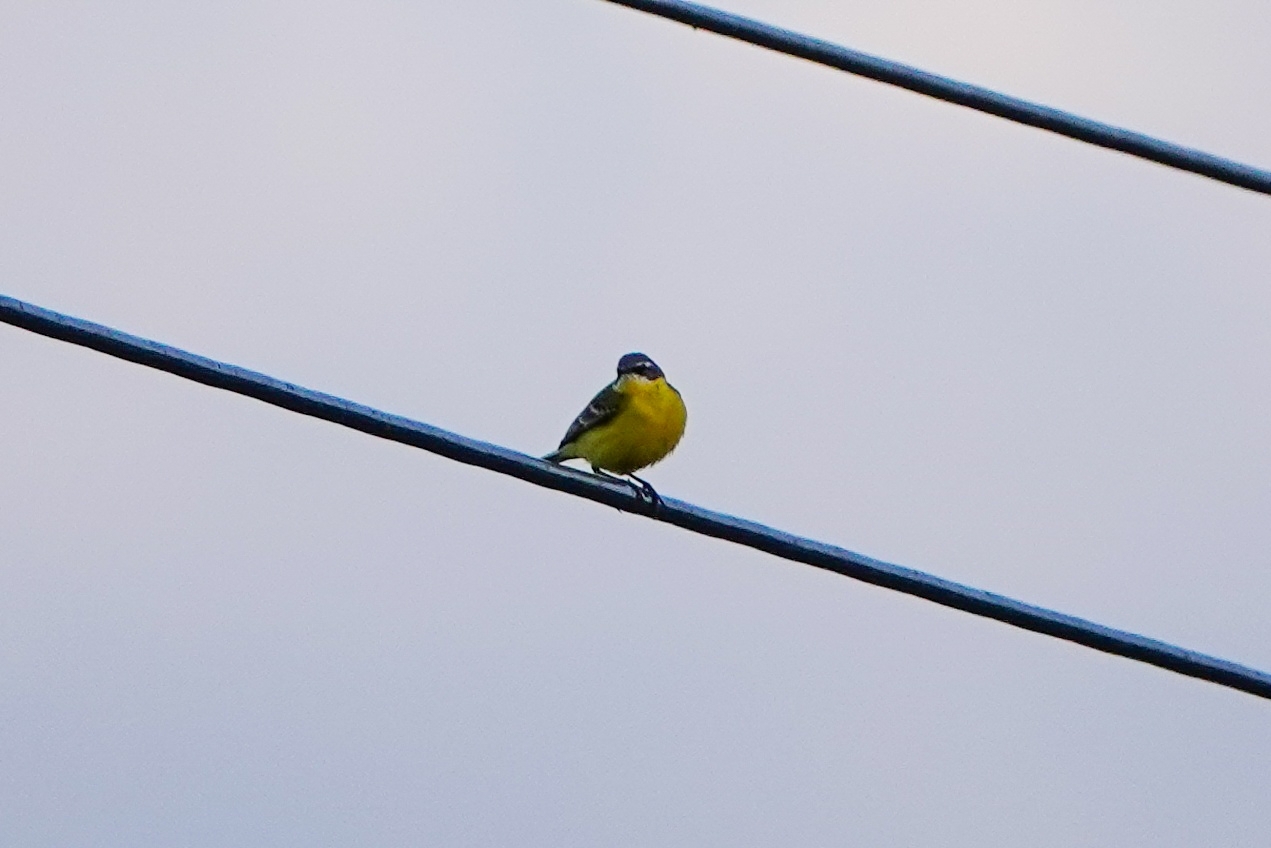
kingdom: Animalia
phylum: Chordata
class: Aves
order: Passeriformes
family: Motacillidae
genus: Motacilla
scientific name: Motacilla flava
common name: Western yellow wagtail
